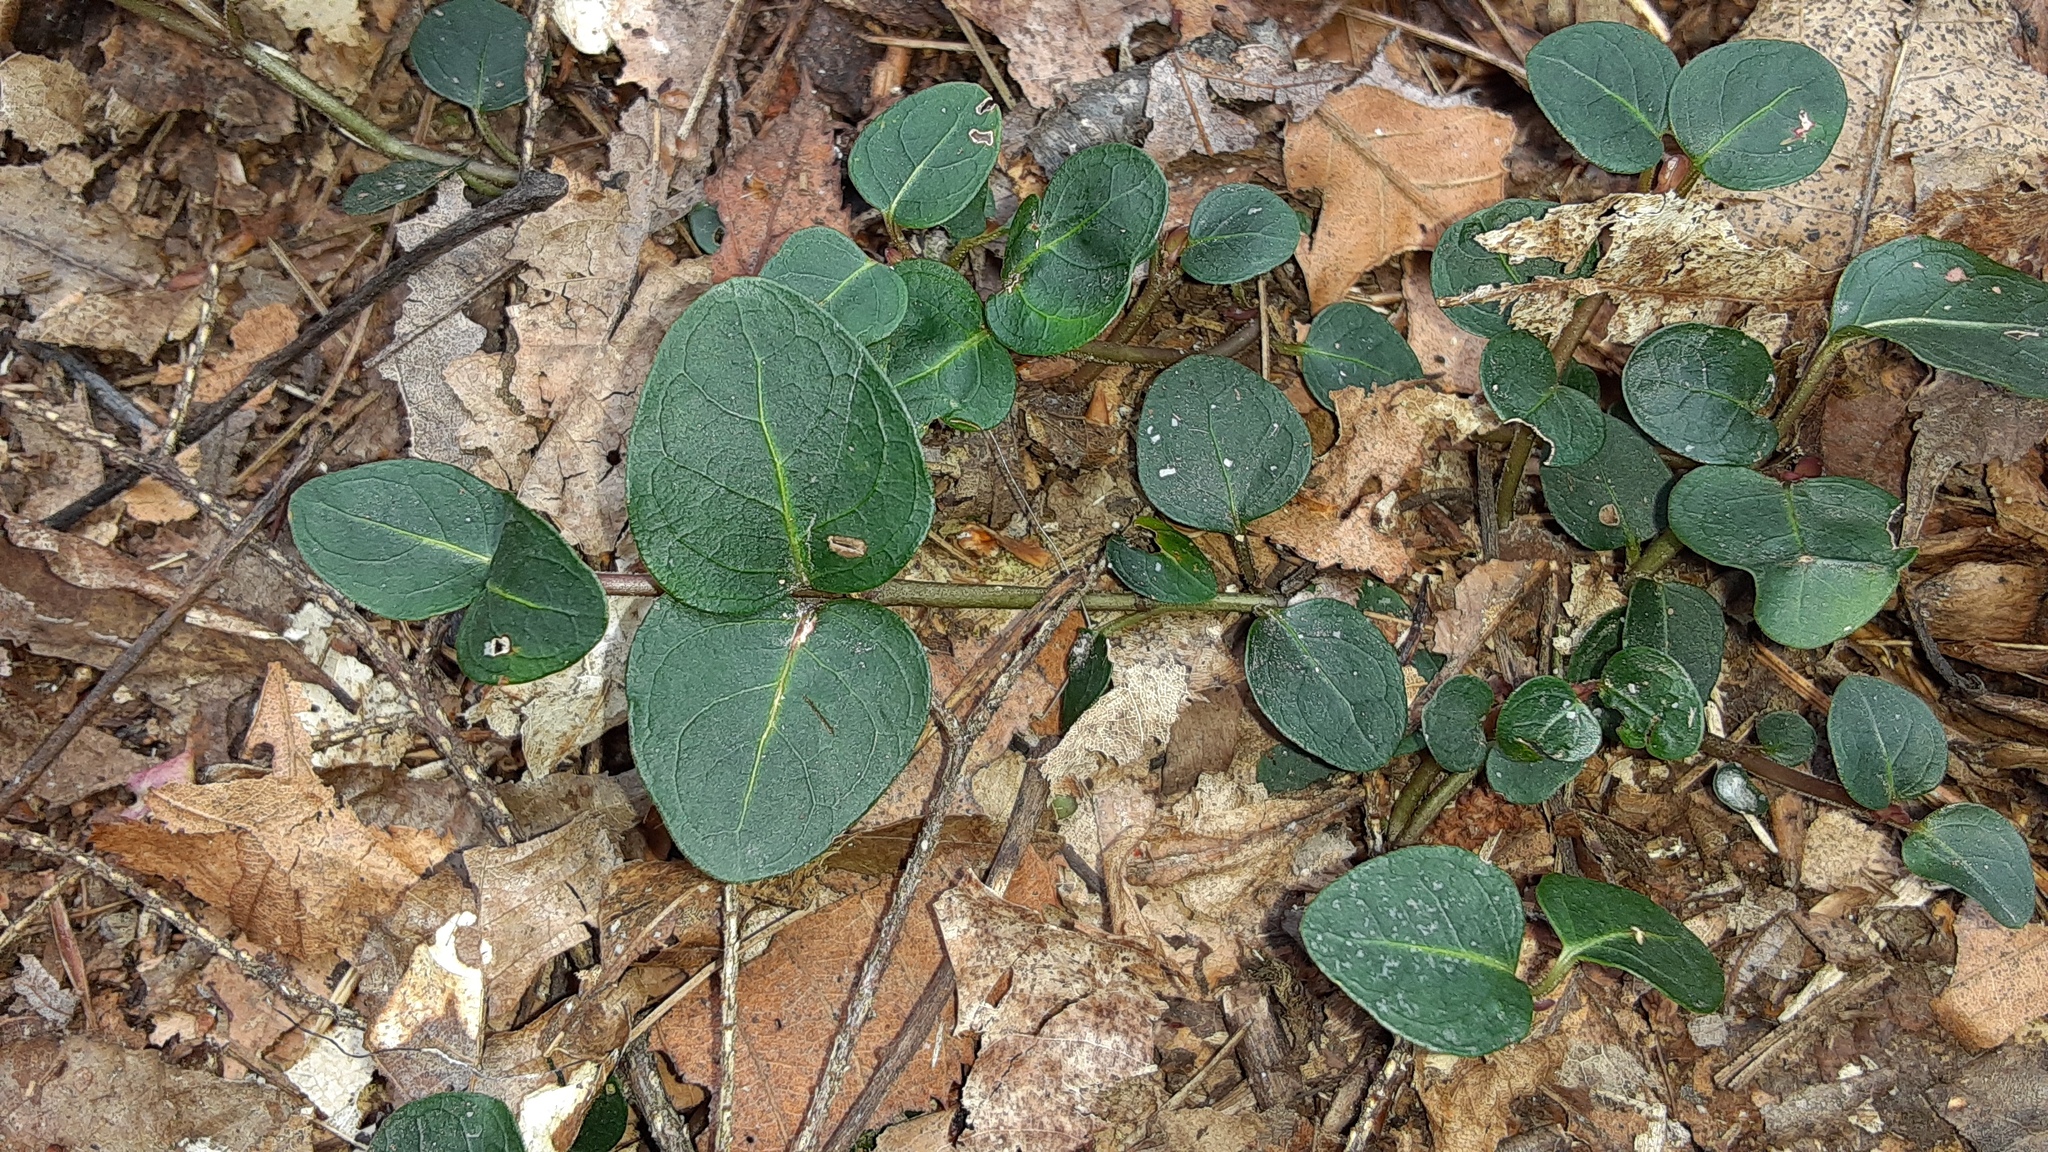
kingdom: Plantae
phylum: Tracheophyta
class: Magnoliopsida
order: Gentianales
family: Rubiaceae
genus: Mitchella
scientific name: Mitchella repens
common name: Partridge-berry
